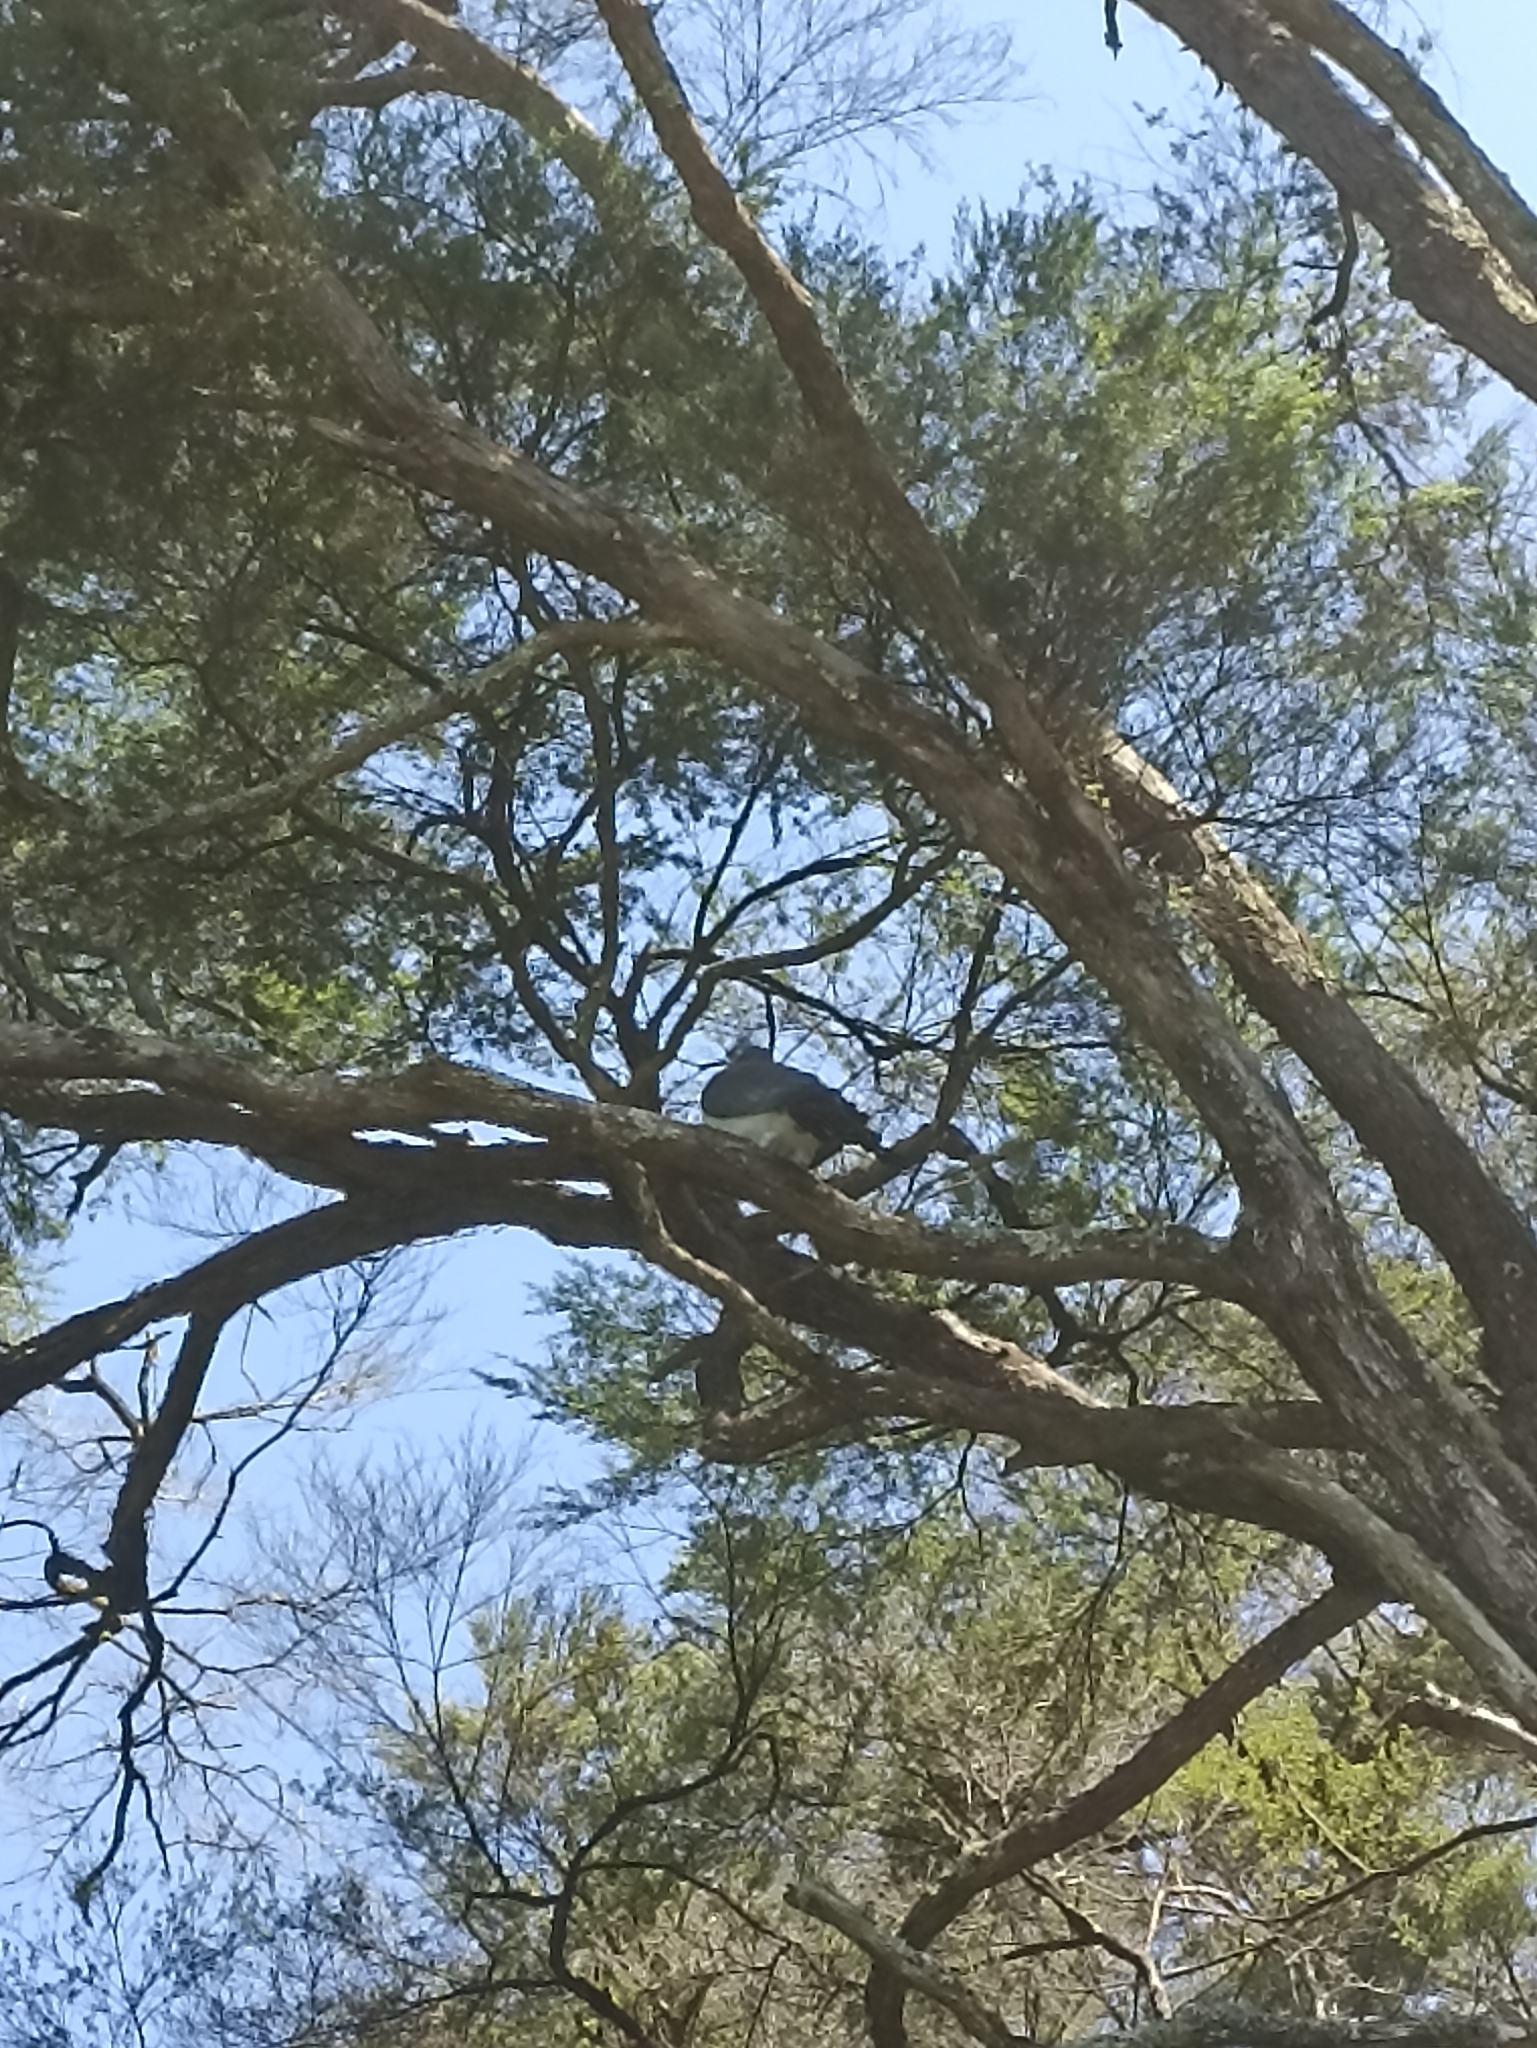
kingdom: Animalia
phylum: Chordata
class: Aves
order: Columbiformes
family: Columbidae
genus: Hemiphaga
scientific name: Hemiphaga novaeseelandiae
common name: New zealand pigeon
